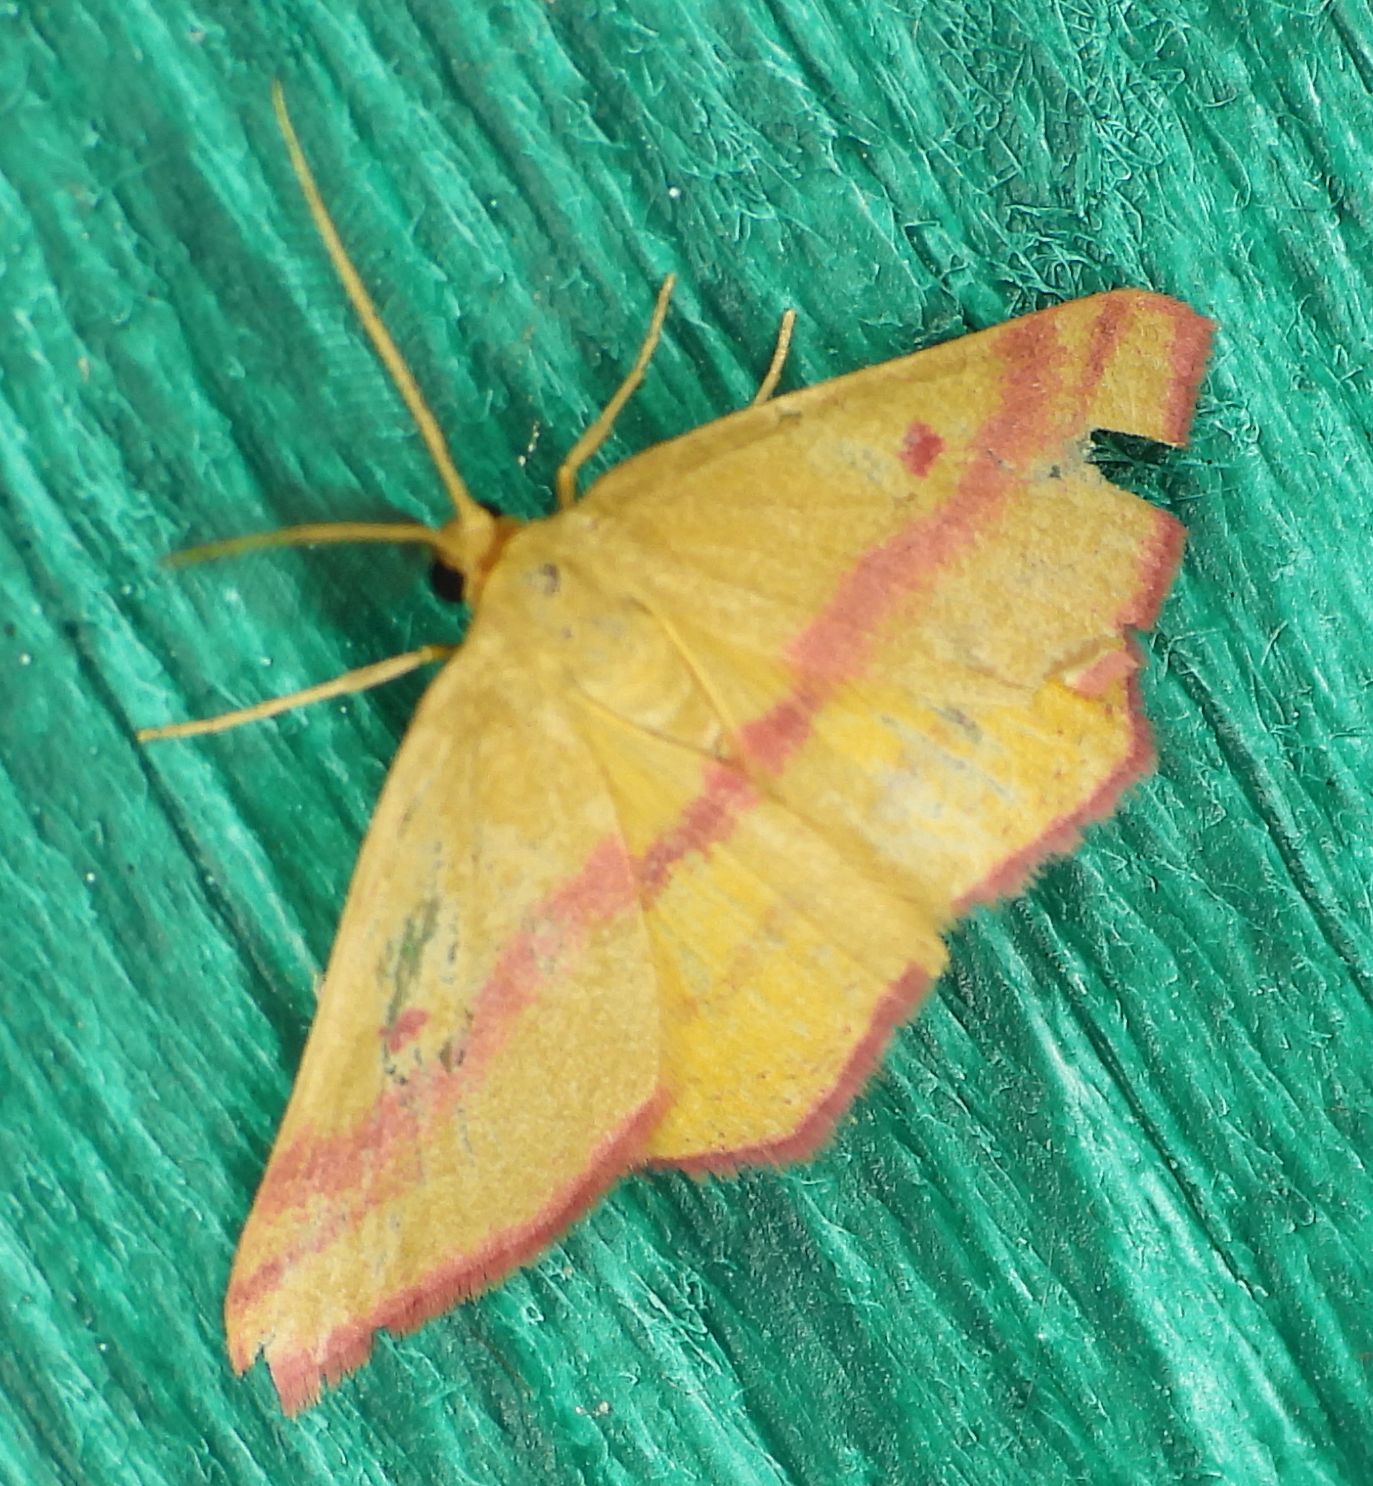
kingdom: Animalia
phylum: Arthropoda
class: Insecta
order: Lepidoptera
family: Geometridae
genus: Haematopis
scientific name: Haematopis grataria
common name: Chickweed geometer
